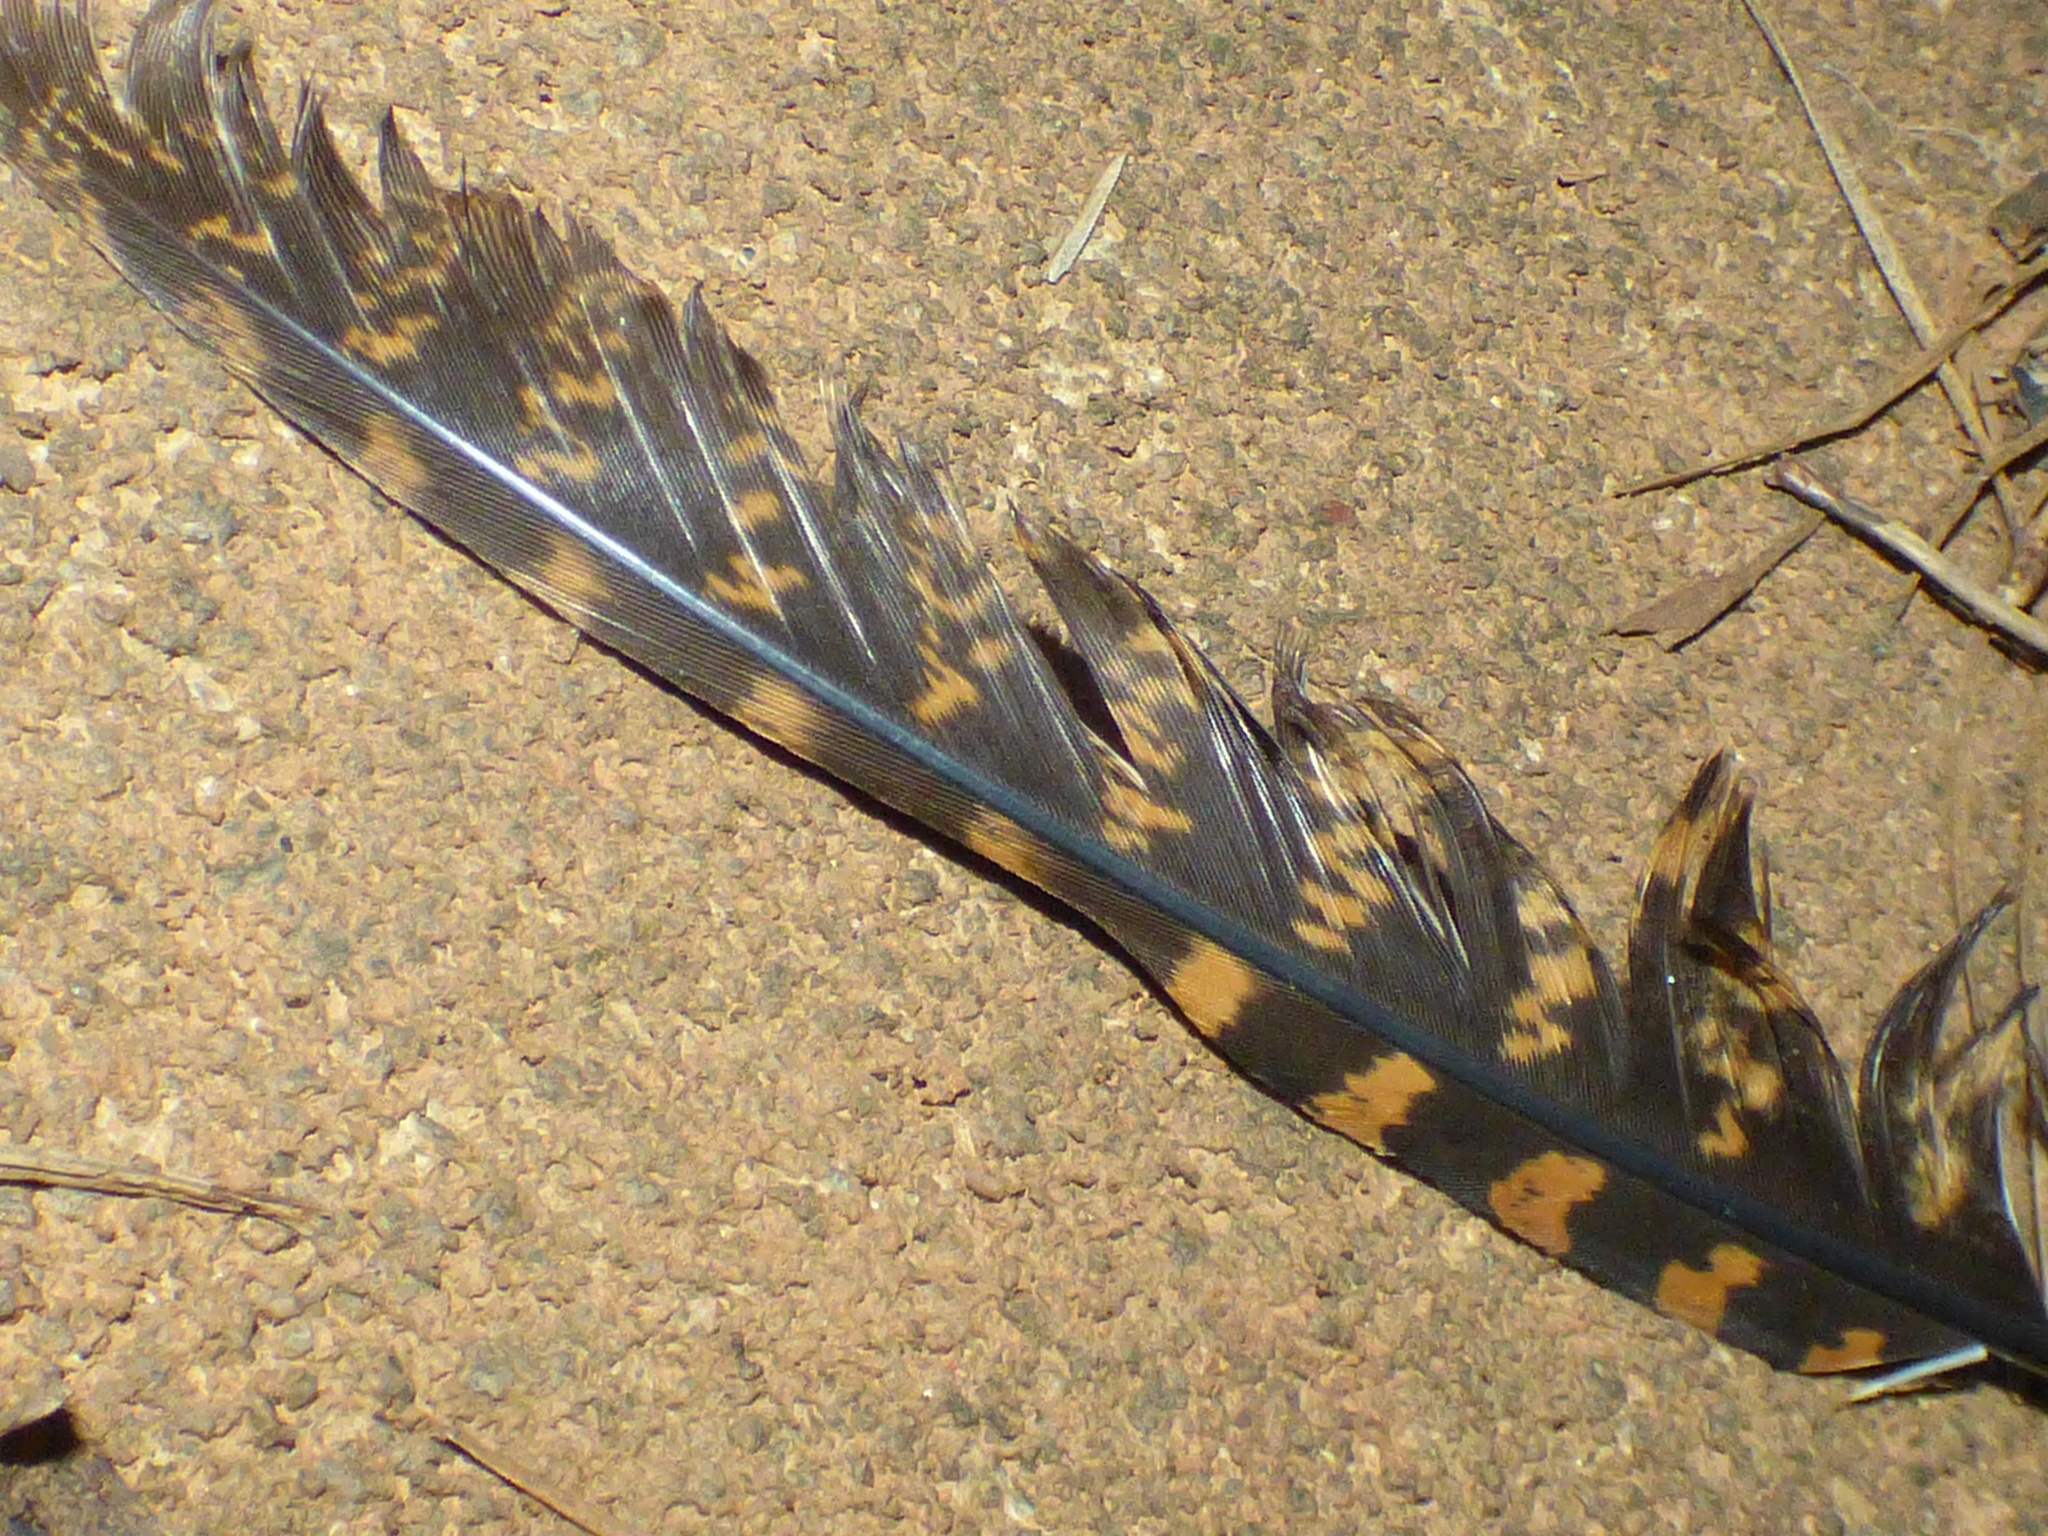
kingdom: Animalia
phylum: Chordata
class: Aves
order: Caprimulgiformes
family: Caprimulgidae
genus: Antrostomus
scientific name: Antrostomus carolinensis
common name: Chuck-will's-widow
